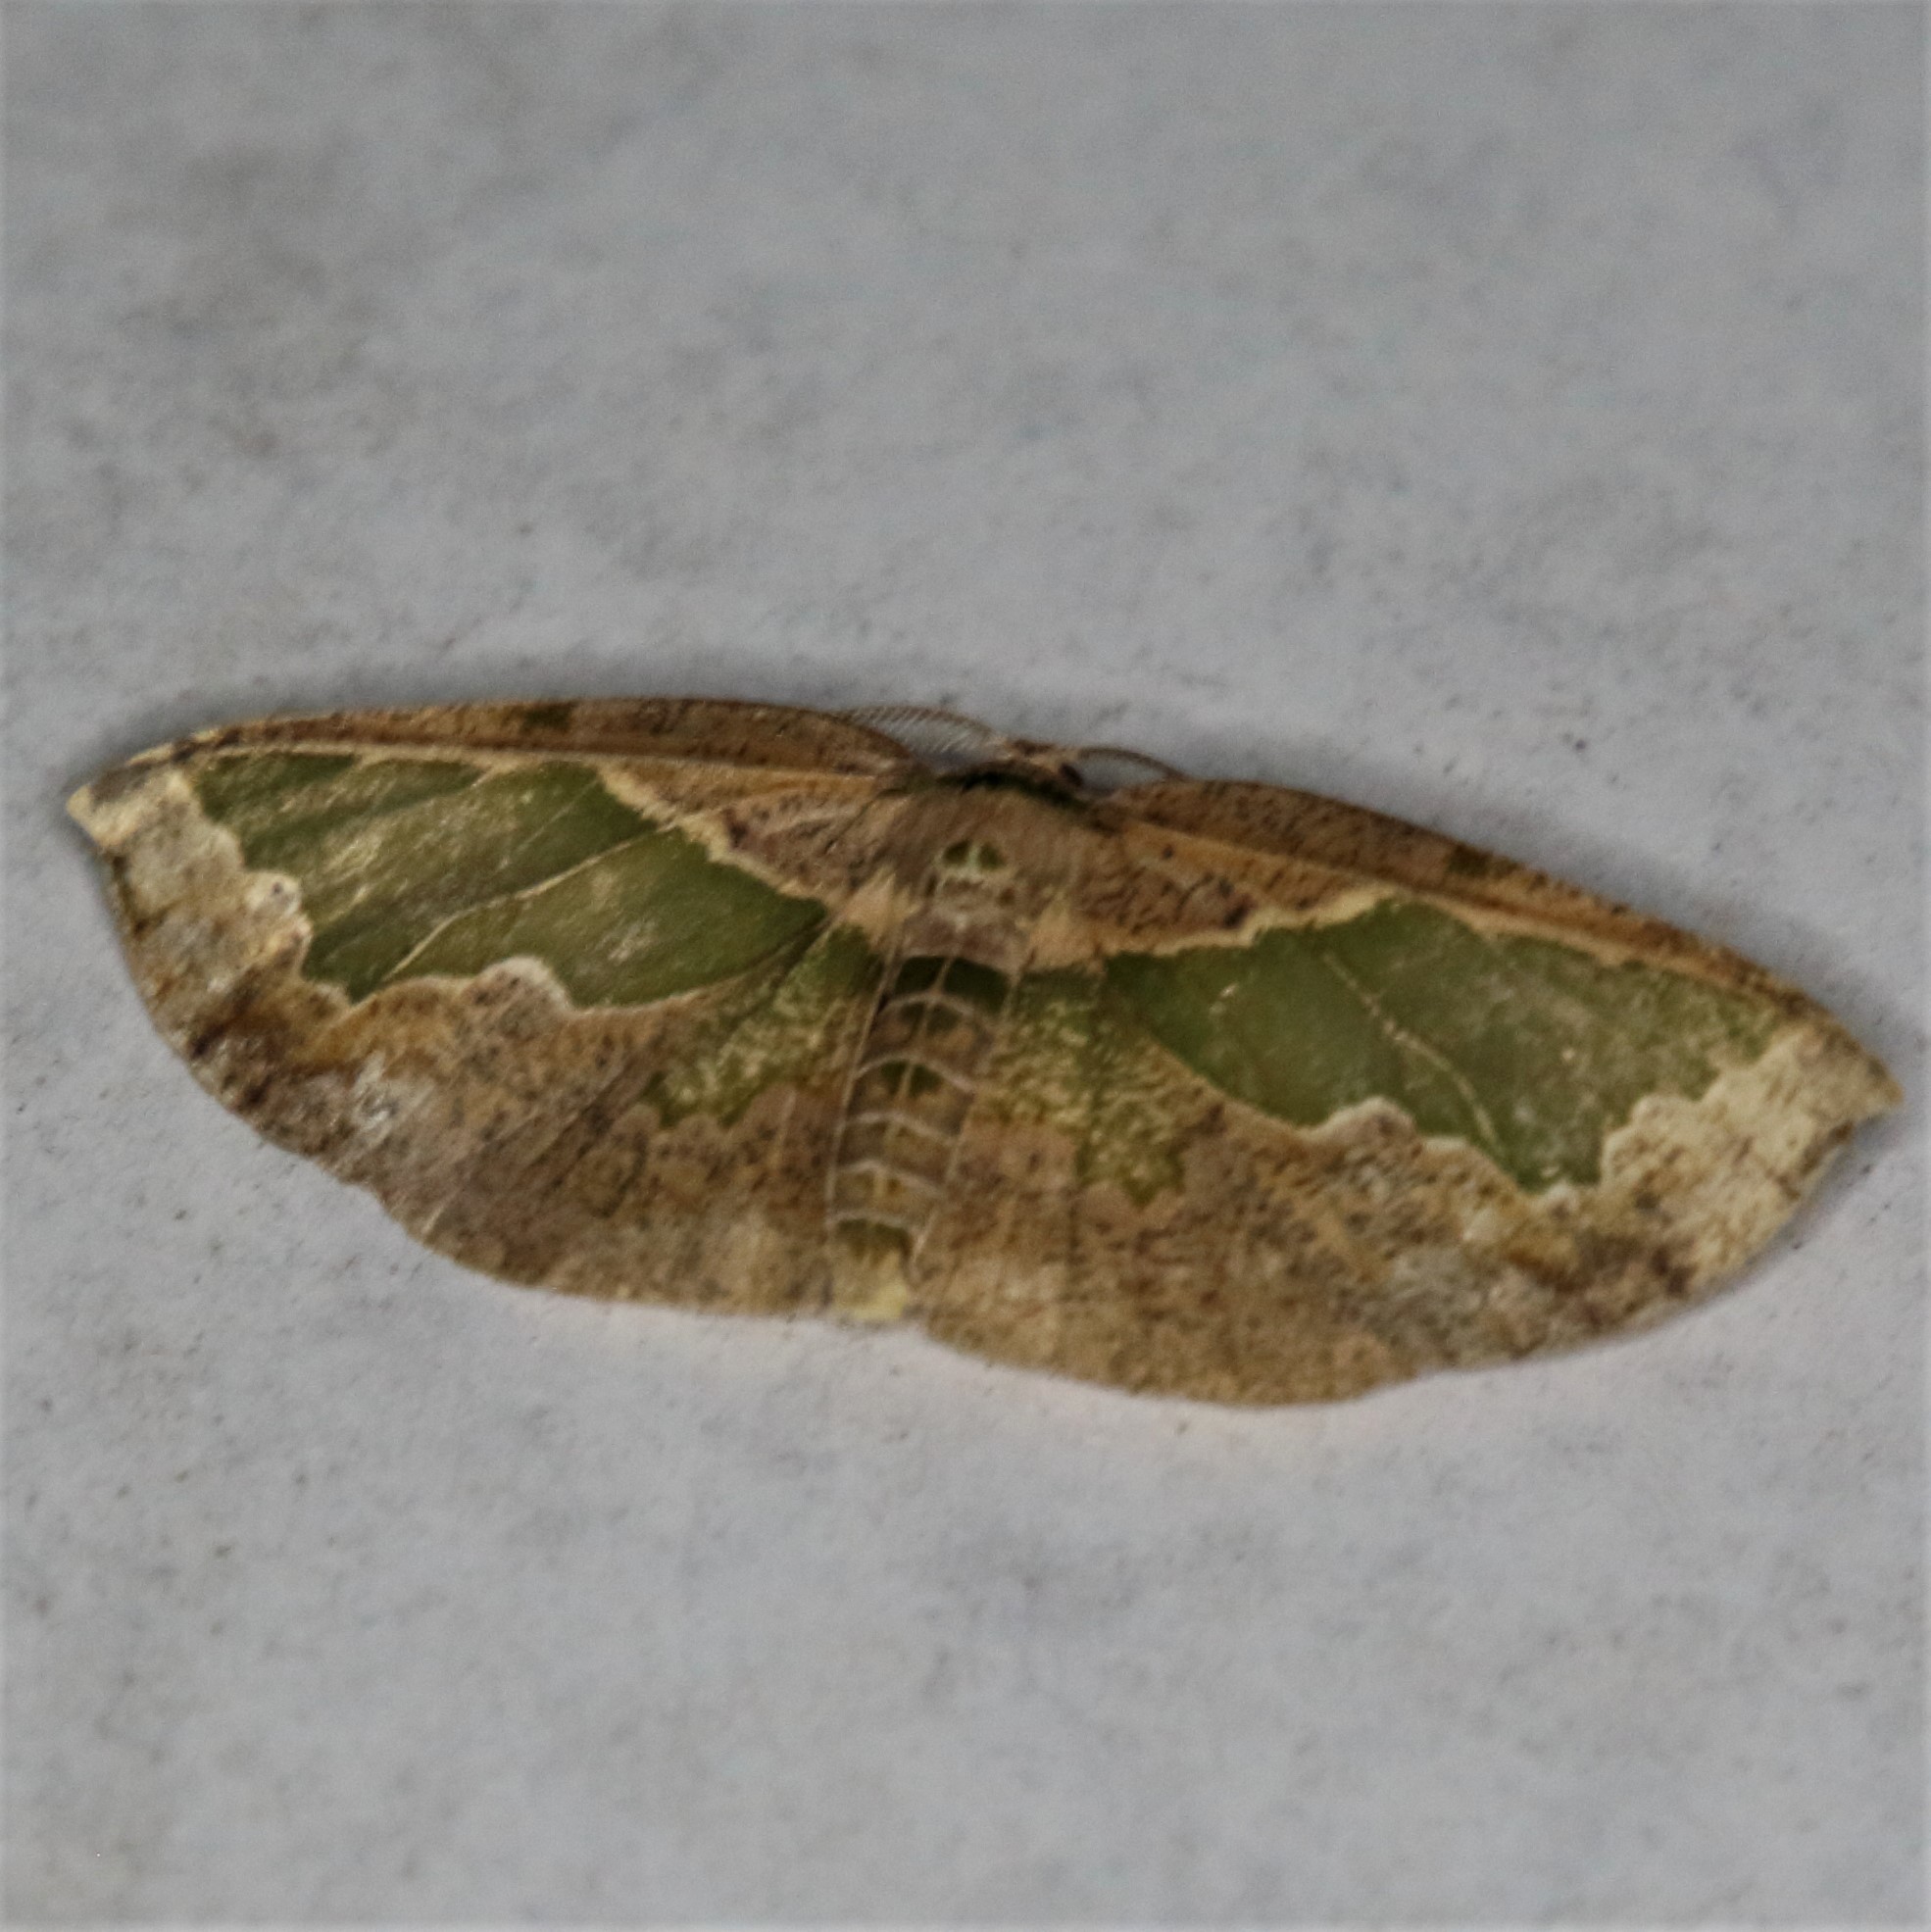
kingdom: Animalia
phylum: Arthropoda
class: Insecta
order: Lepidoptera
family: Geometridae
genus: Celenna
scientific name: Celenna callopistes
